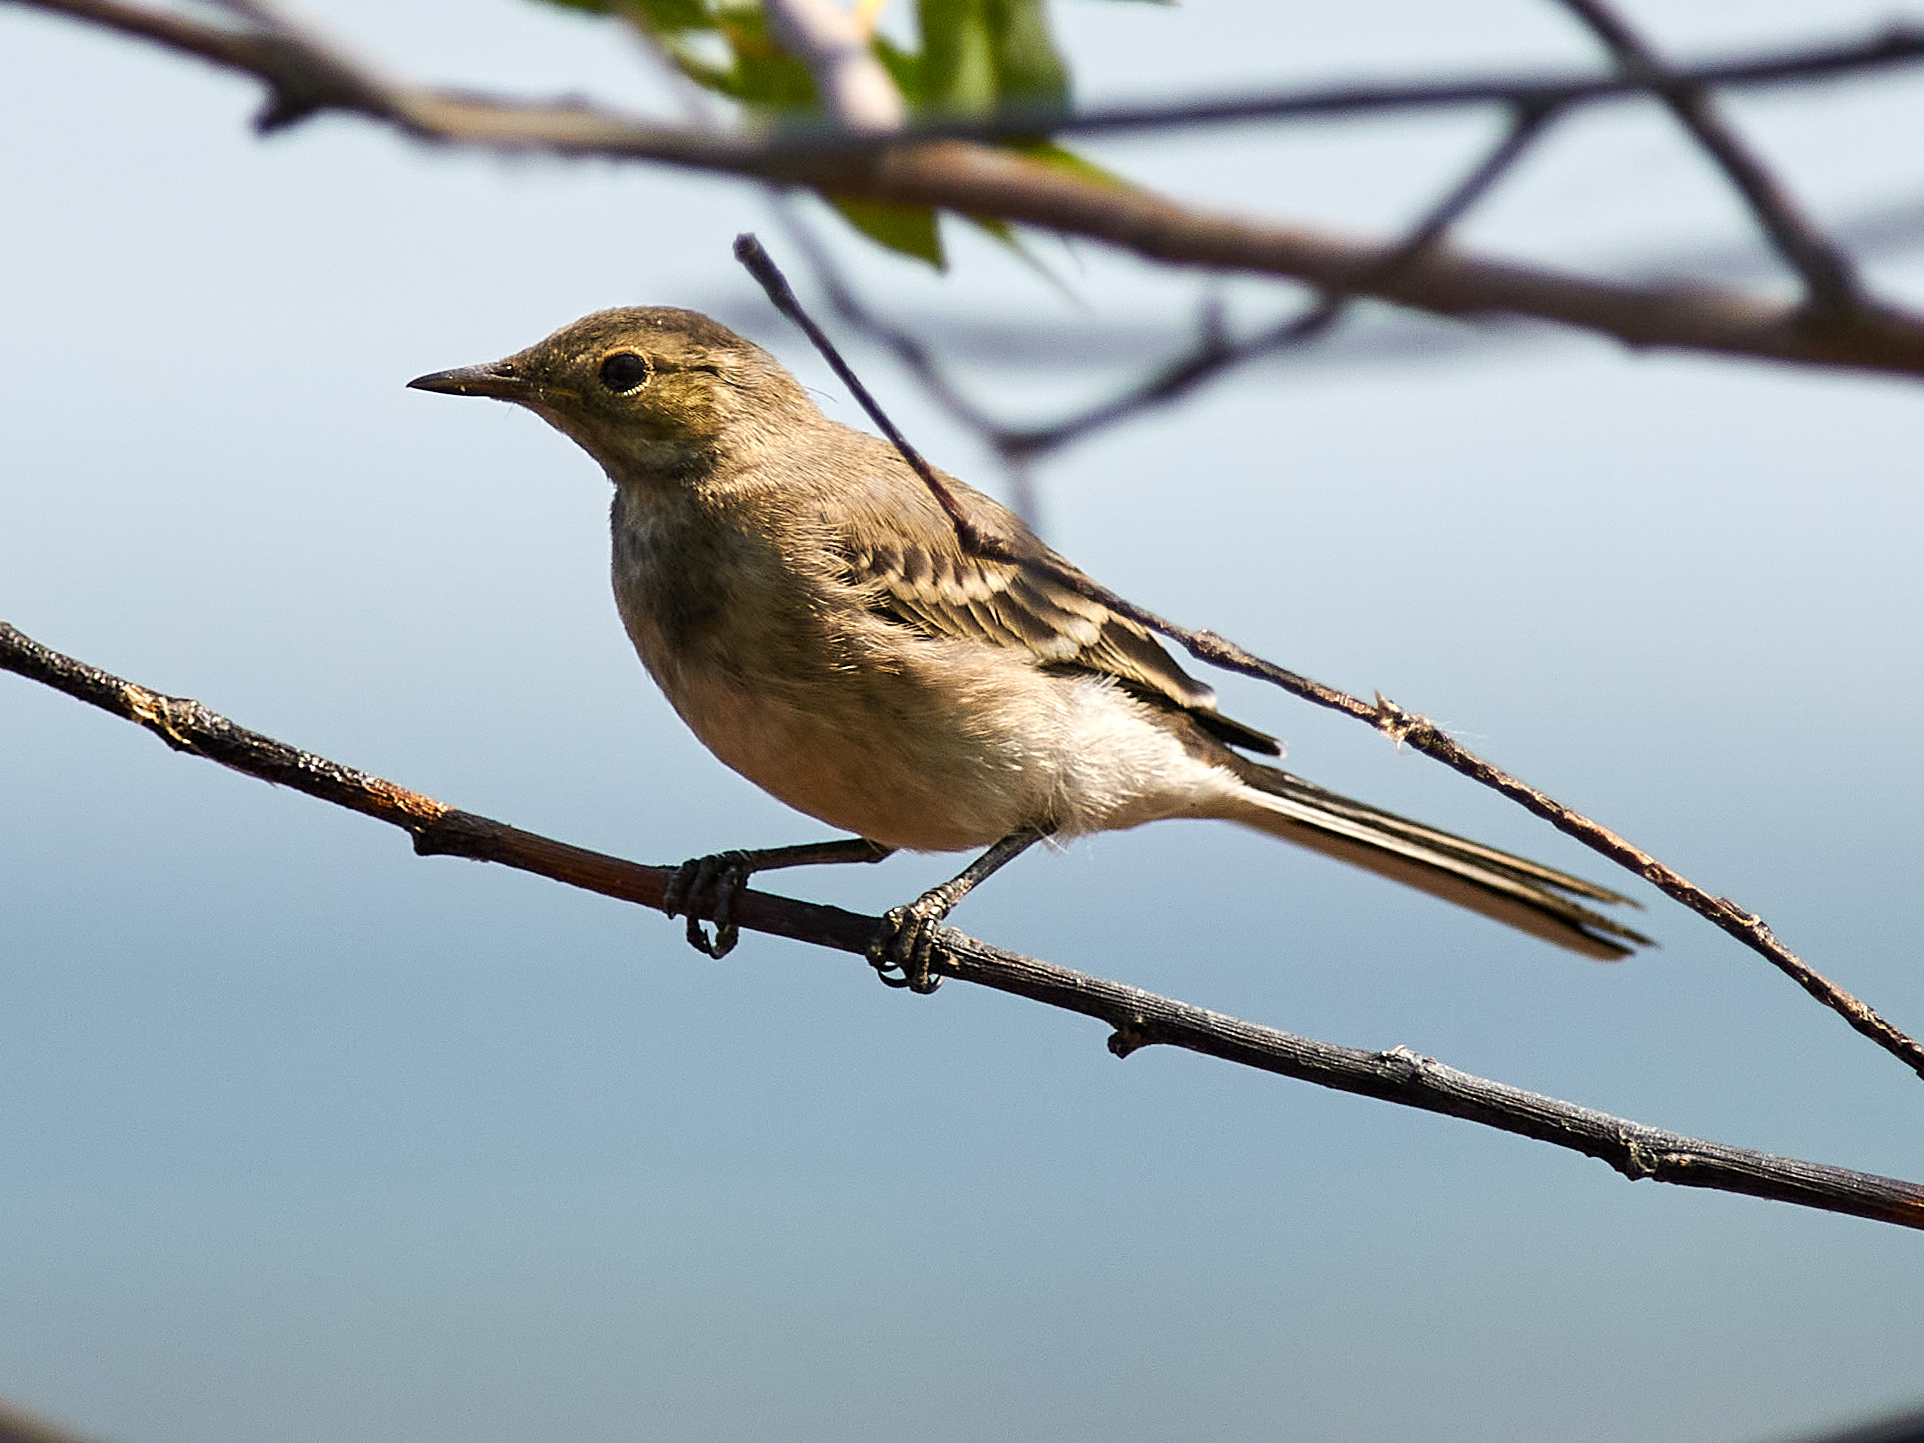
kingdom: Animalia
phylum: Chordata
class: Aves
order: Passeriformes
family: Motacillidae
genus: Motacilla
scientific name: Motacilla alba
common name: White wagtail
